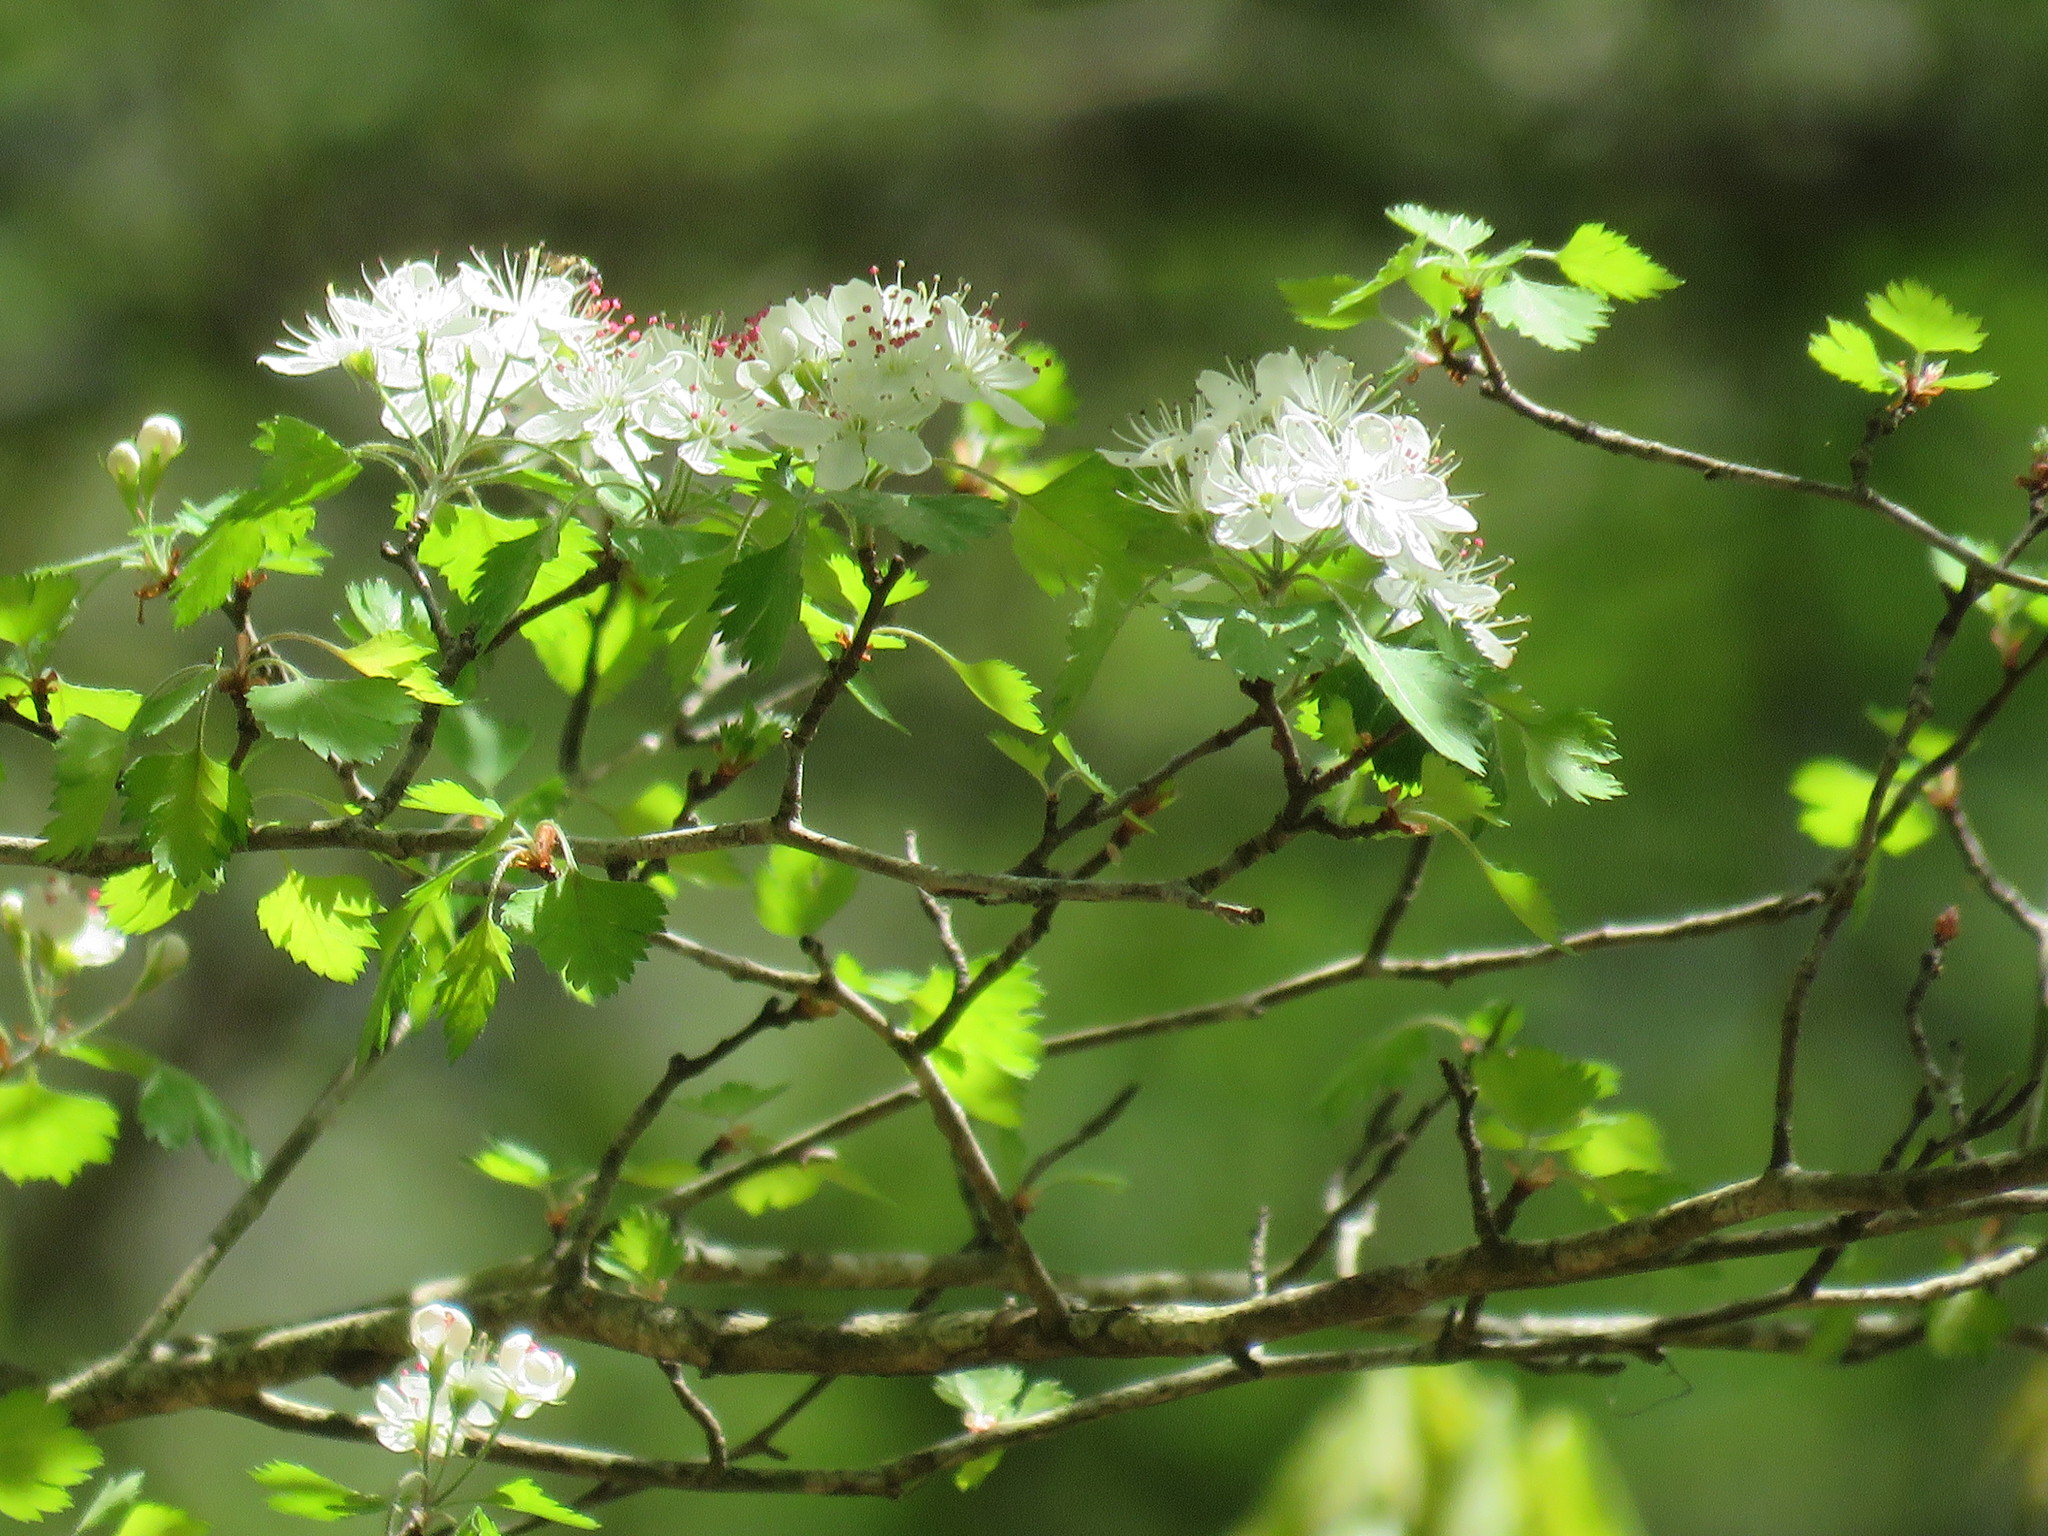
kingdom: Plantae
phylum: Tracheophyta
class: Magnoliopsida
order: Rosales
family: Rosaceae
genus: Crataegus
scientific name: Crataegus marshallii
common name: Parsley-hawthorn
